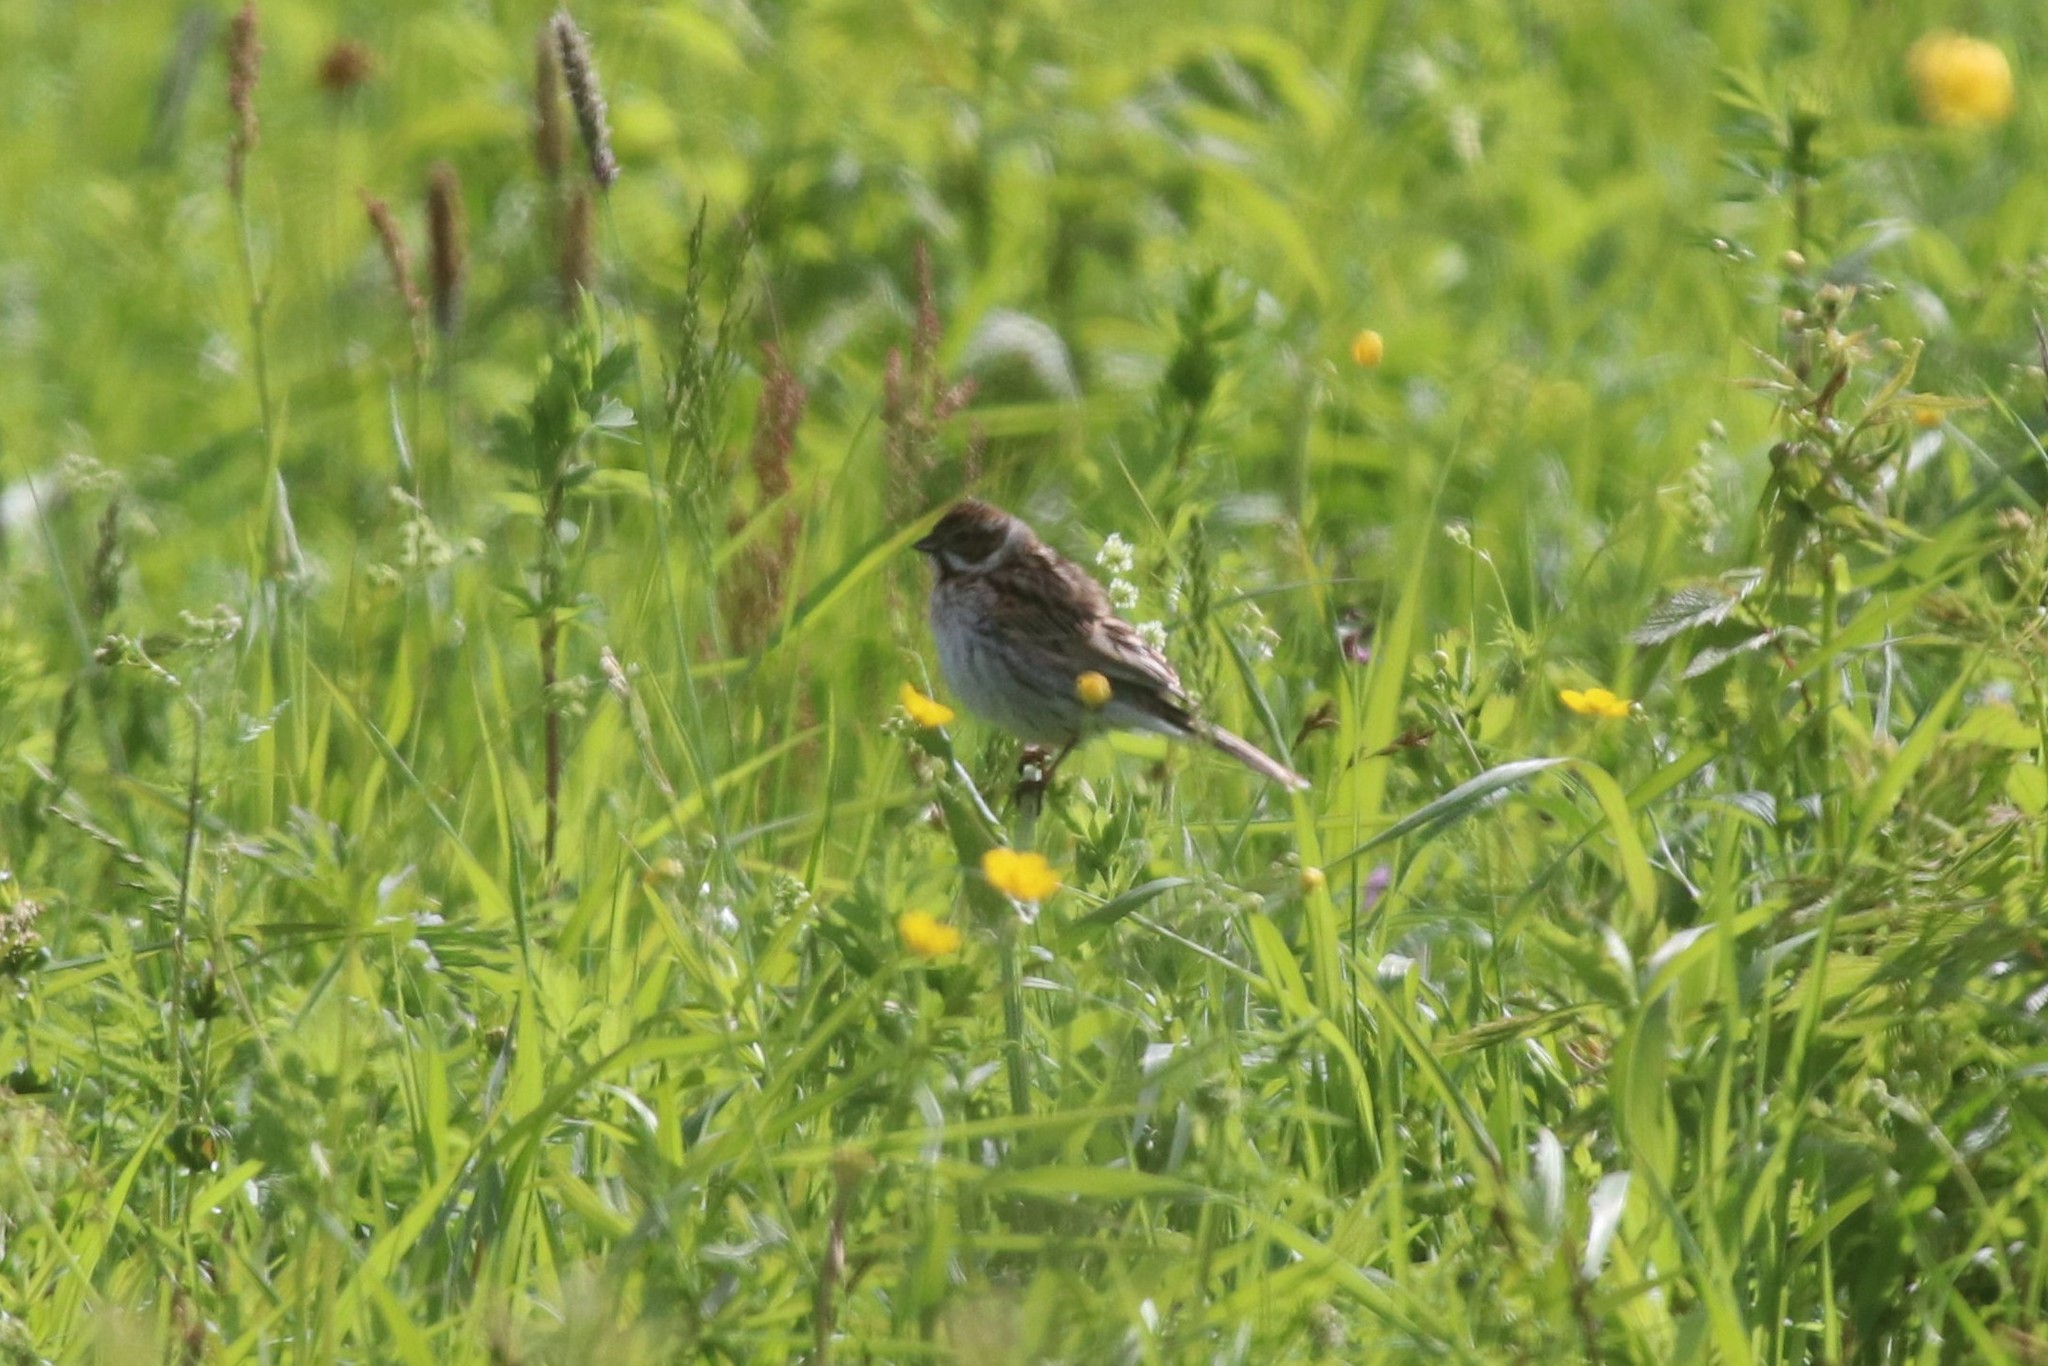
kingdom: Animalia
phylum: Chordata
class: Aves
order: Passeriformes
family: Emberizidae
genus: Emberiza
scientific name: Emberiza schoeniclus
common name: Reed bunting
